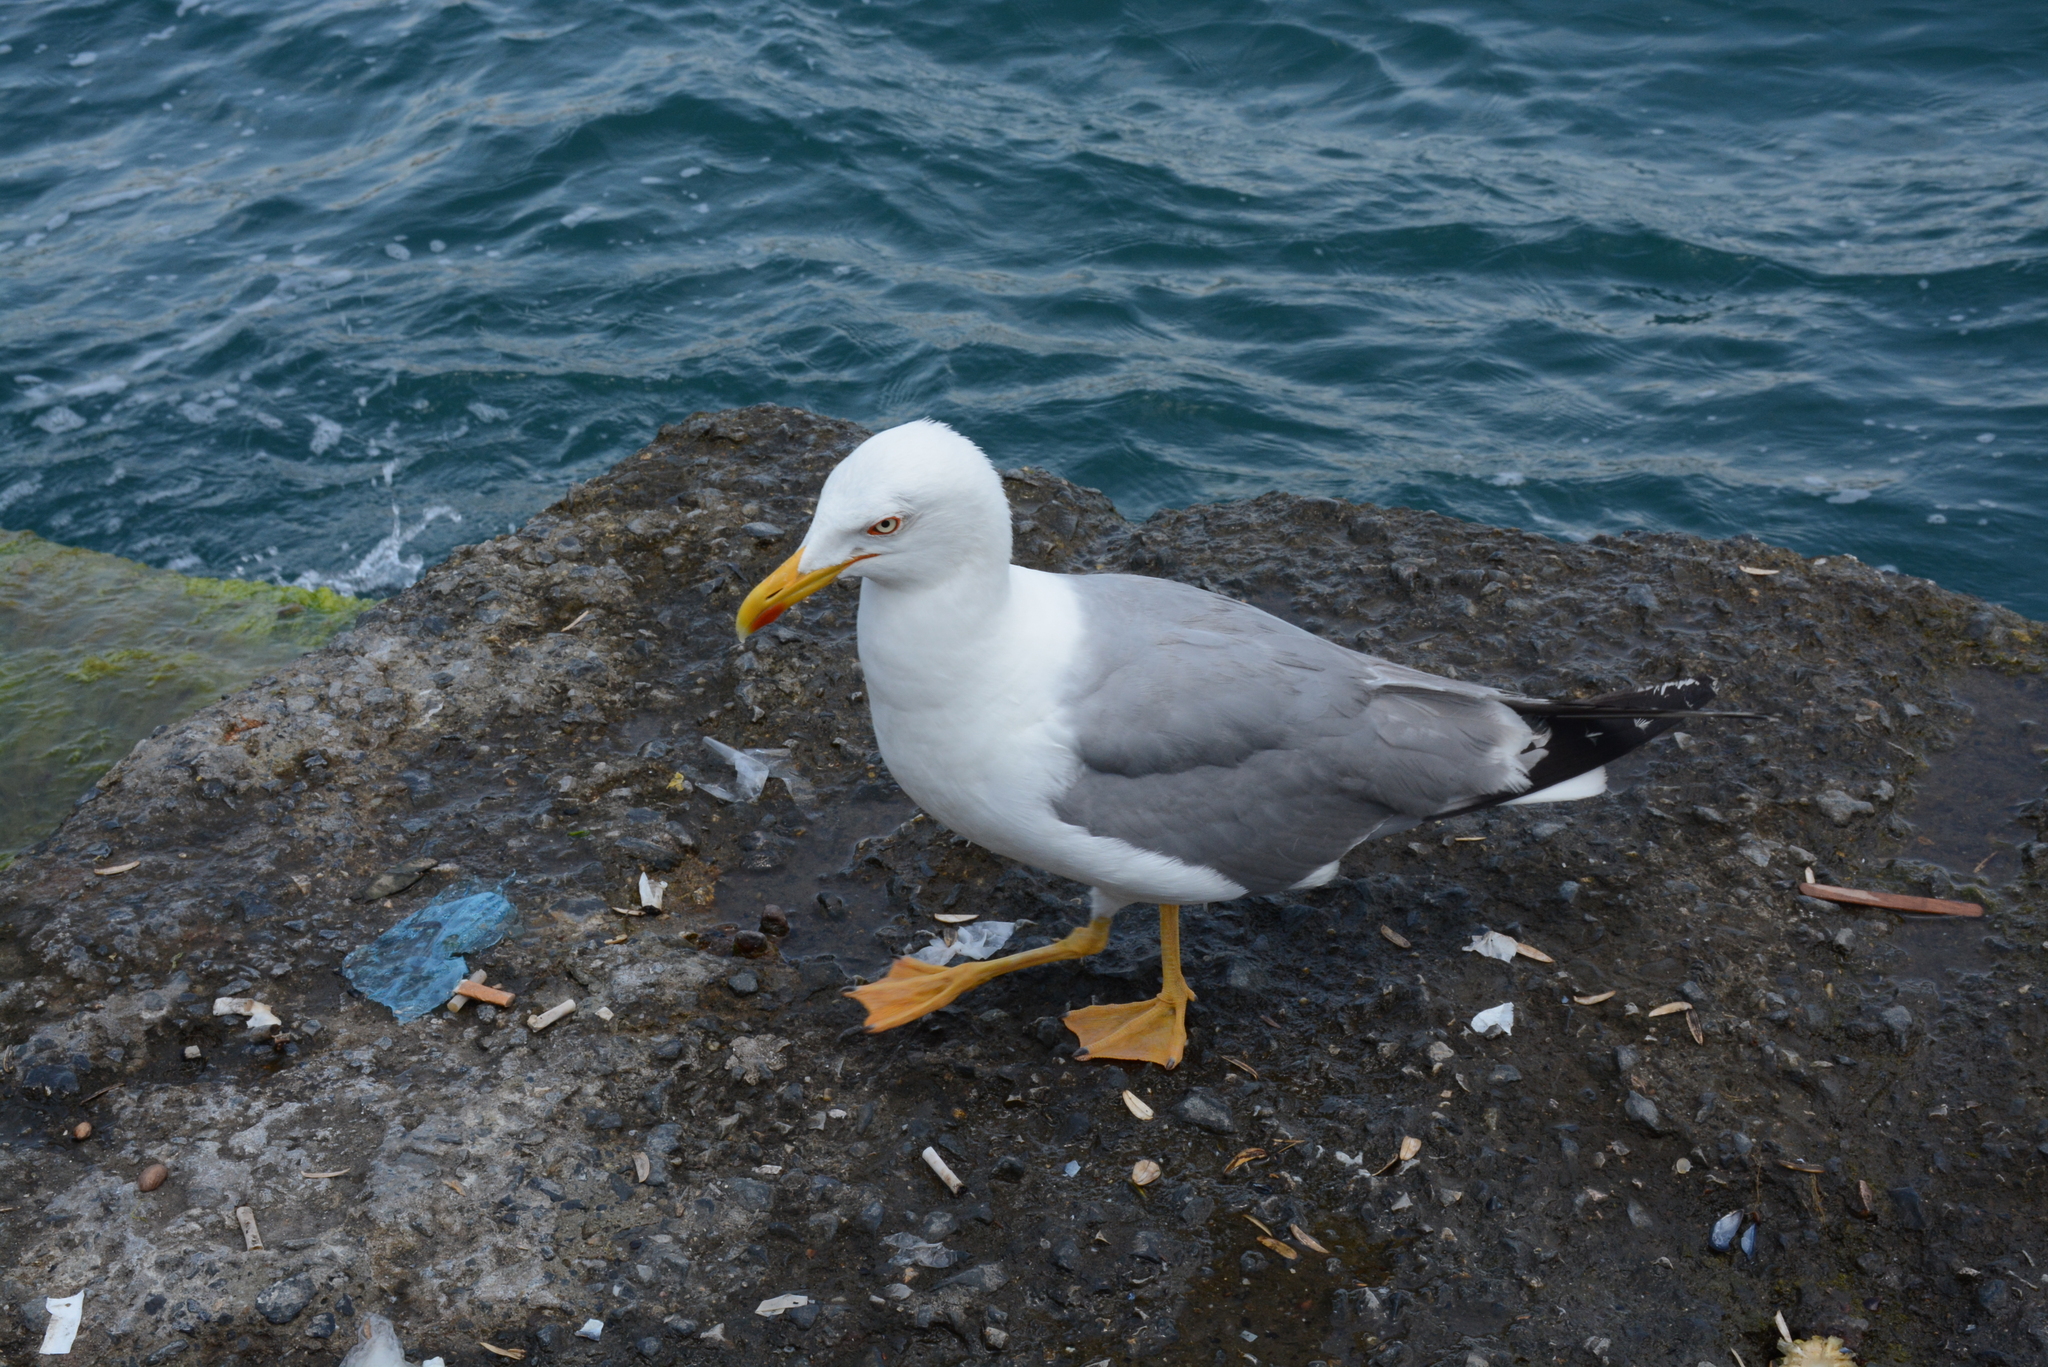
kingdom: Animalia
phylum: Chordata
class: Aves
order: Charadriiformes
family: Laridae
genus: Larus
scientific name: Larus michahellis
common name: Yellow-legged gull
